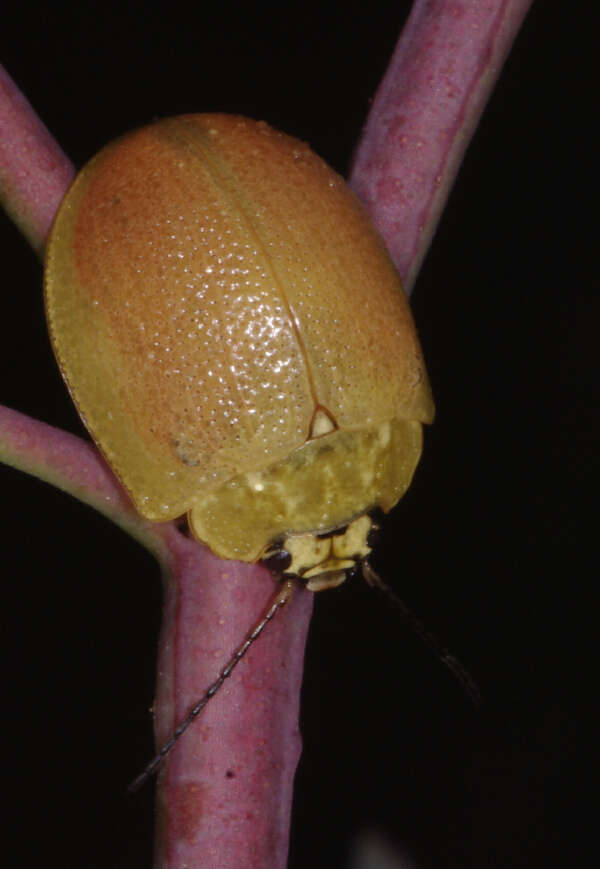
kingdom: Animalia
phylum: Arthropoda
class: Insecta
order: Coleoptera
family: Chrysomelidae
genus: Paropsis
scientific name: Paropsis
